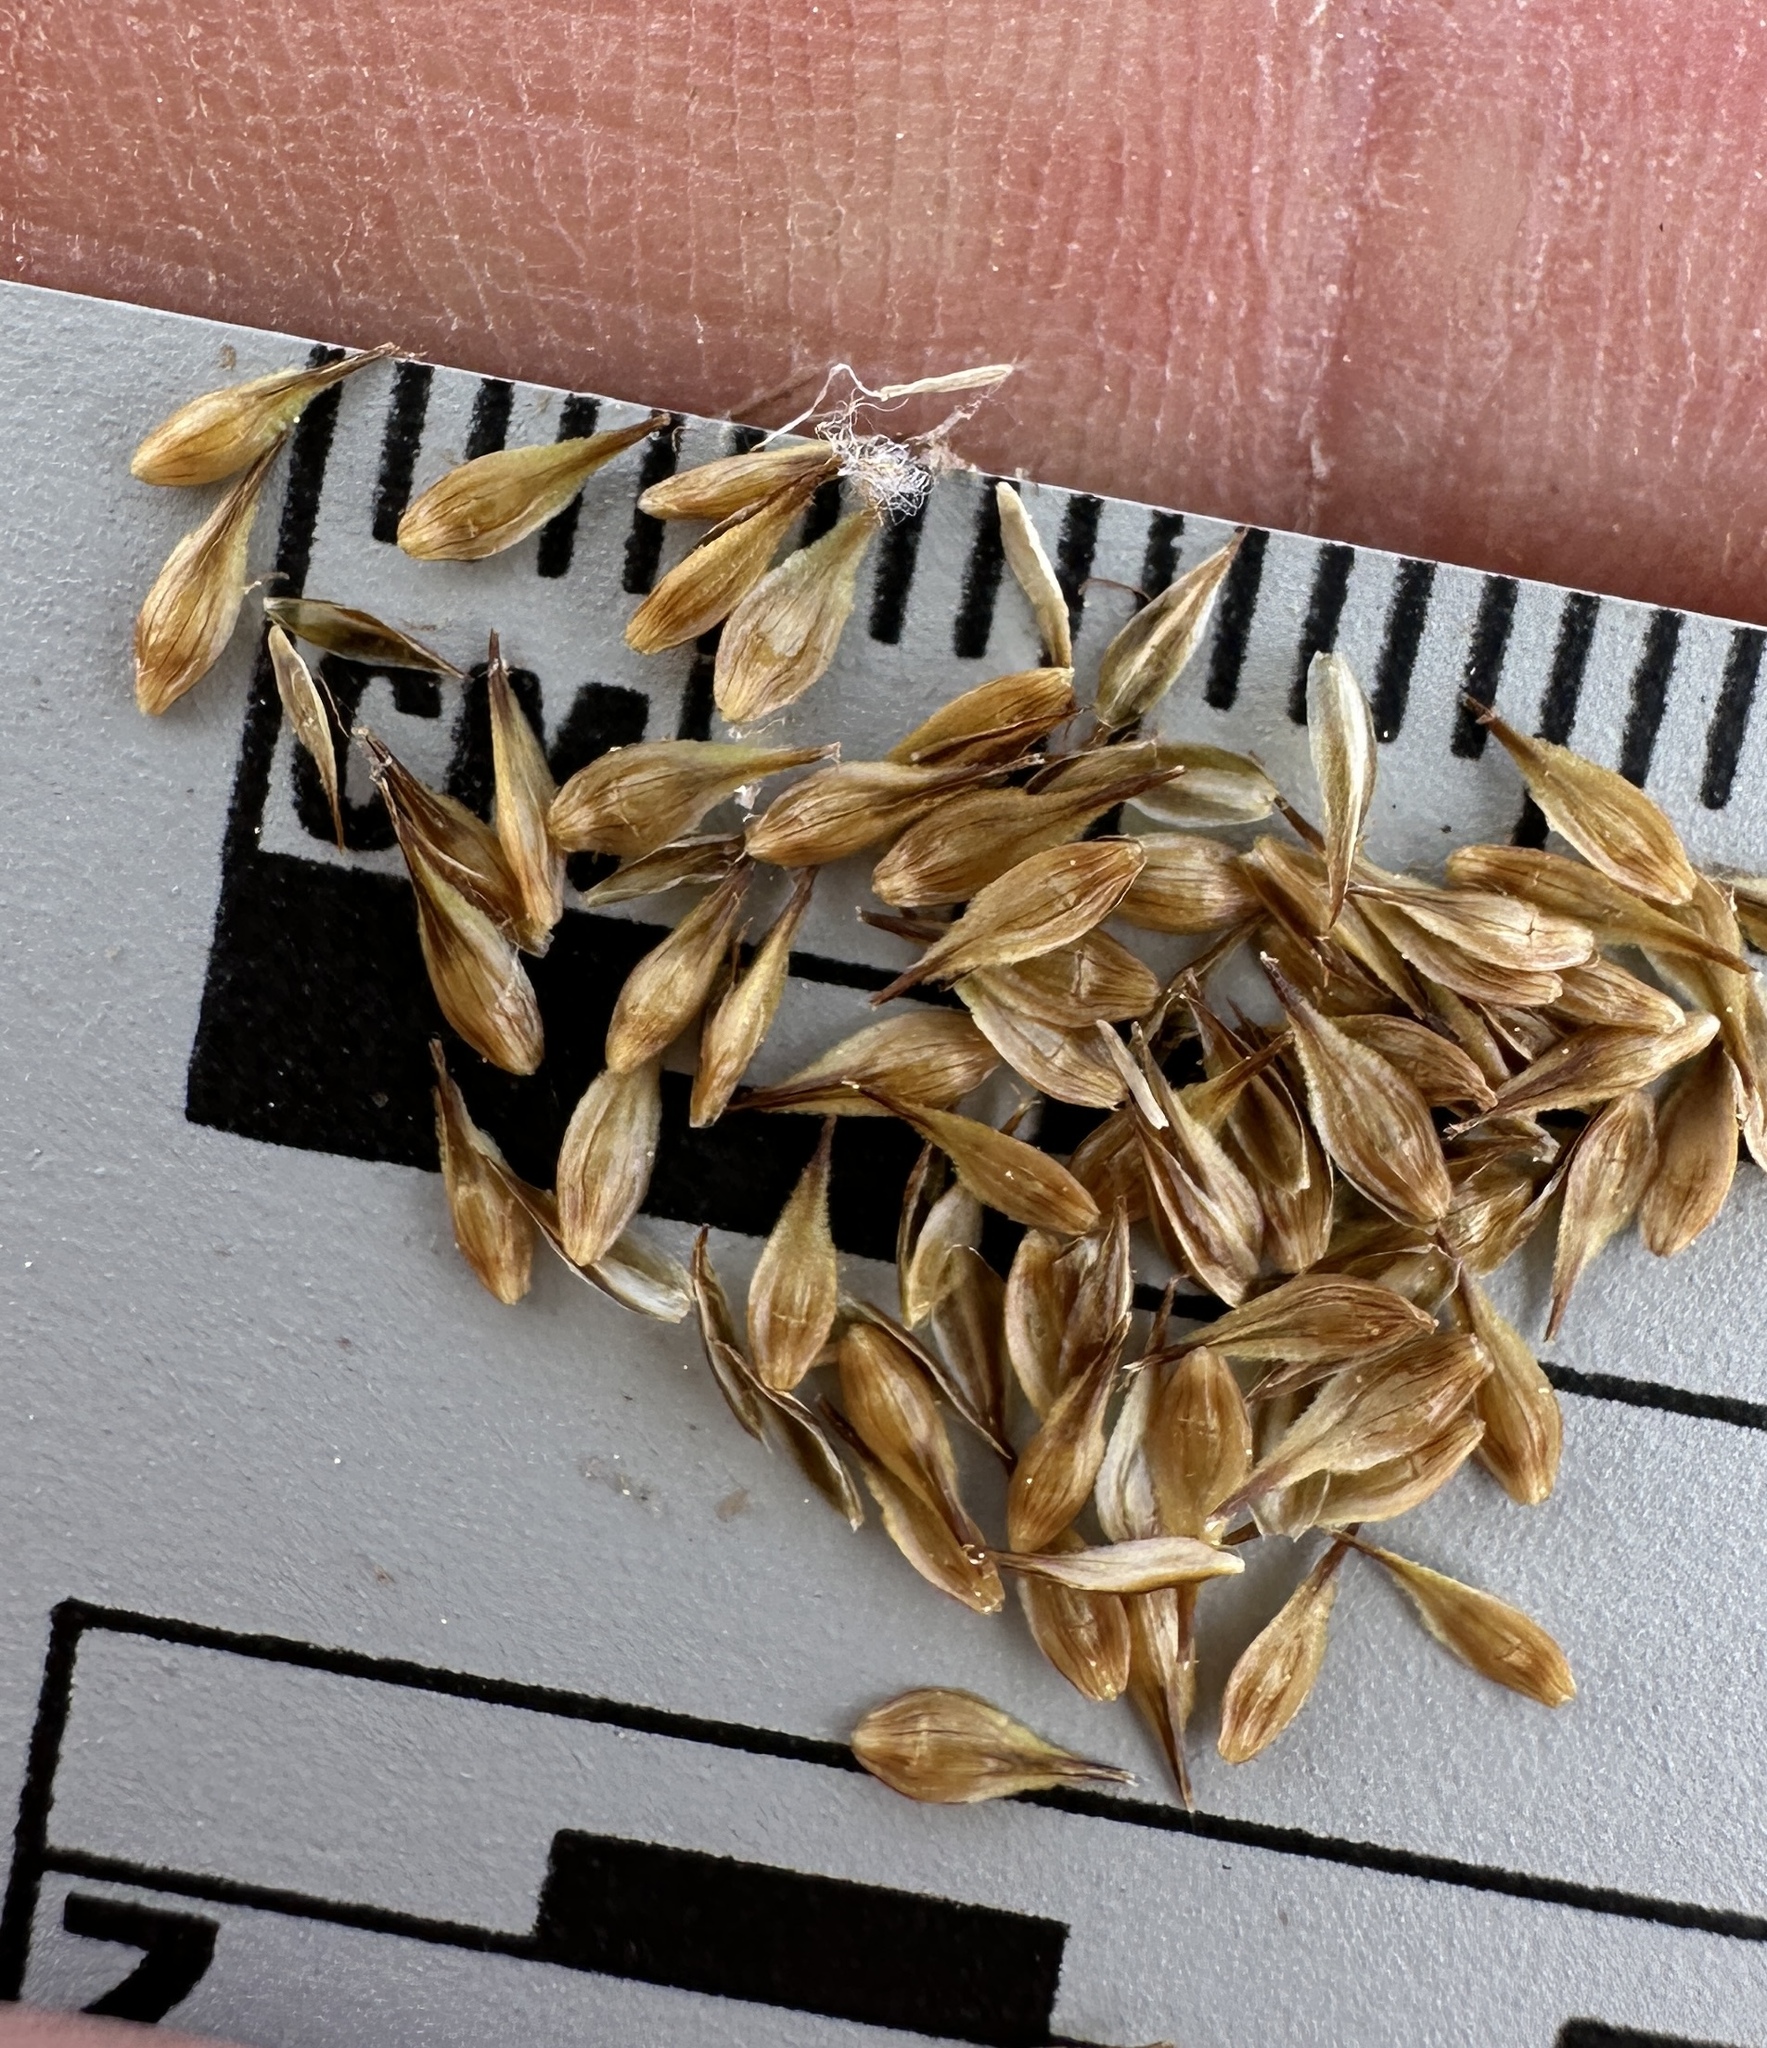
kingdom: Plantae
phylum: Tracheophyta
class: Liliopsida
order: Poales
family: Cyperaceae
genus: Carex
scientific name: Carex athrostachya
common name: Slenderbeak sedge
